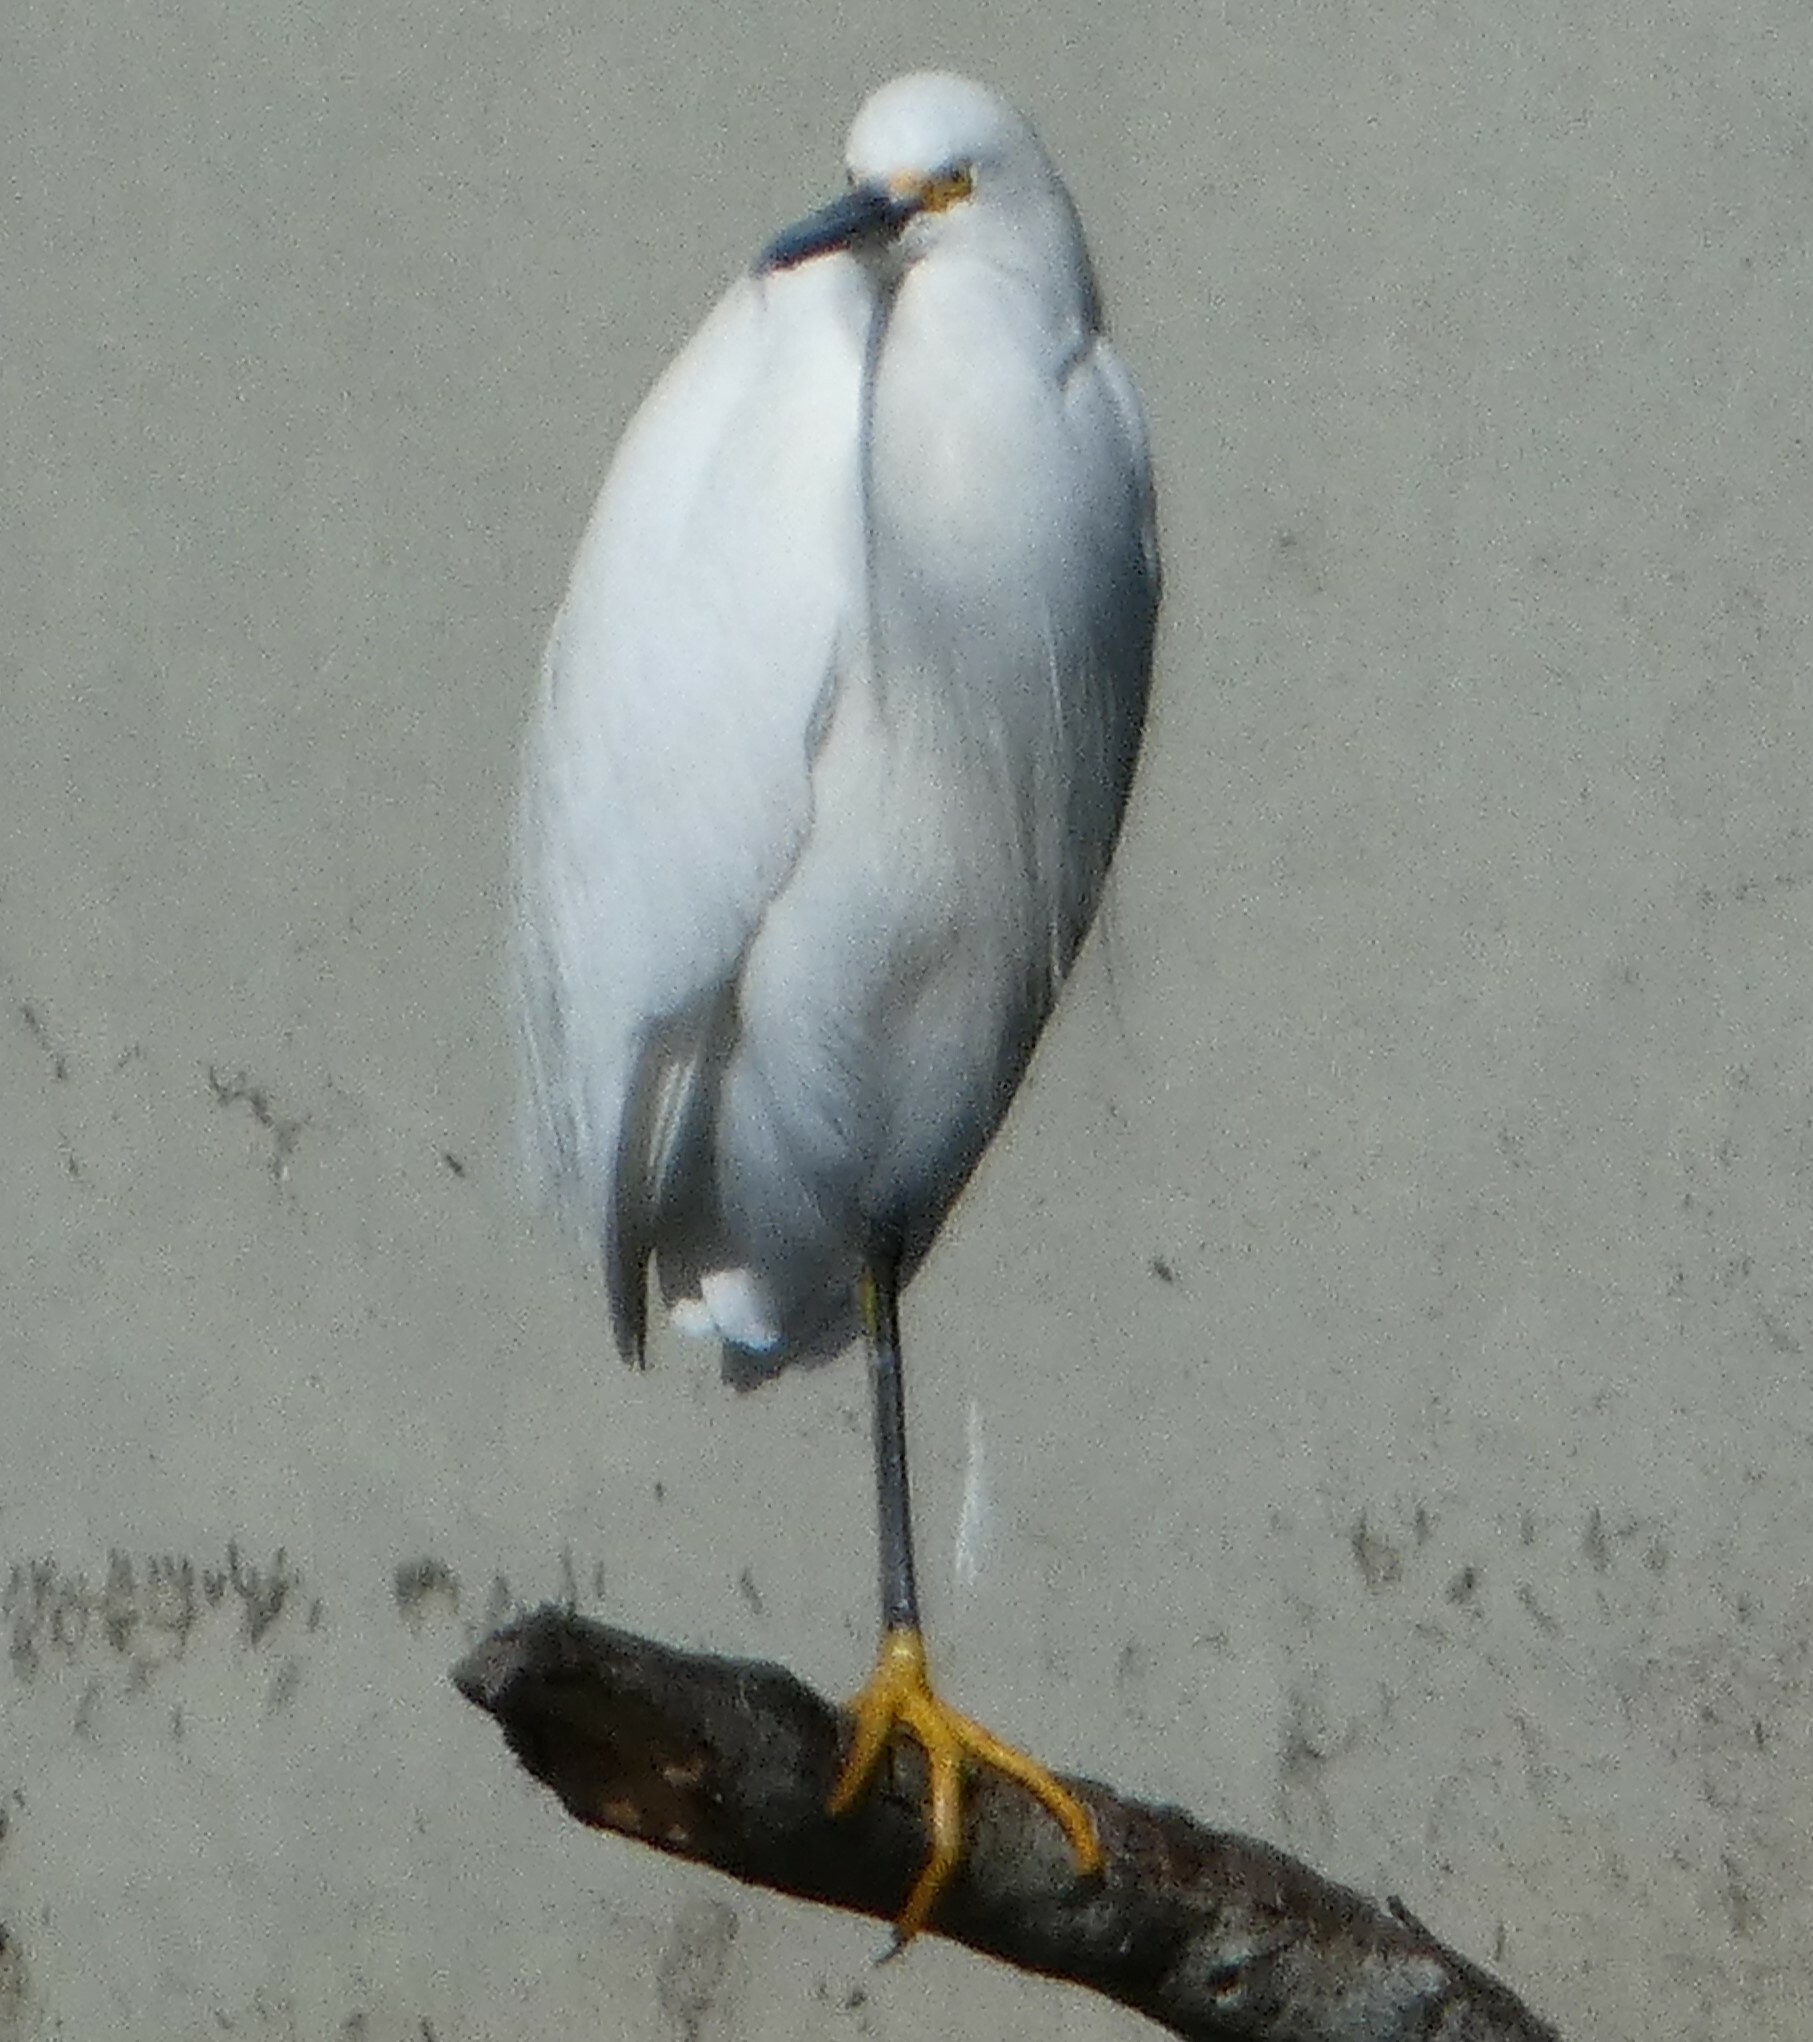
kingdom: Animalia
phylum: Chordata
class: Aves
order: Pelecaniformes
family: Ardeidae
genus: Egretta
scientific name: Egretta thula
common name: Snowy egret
